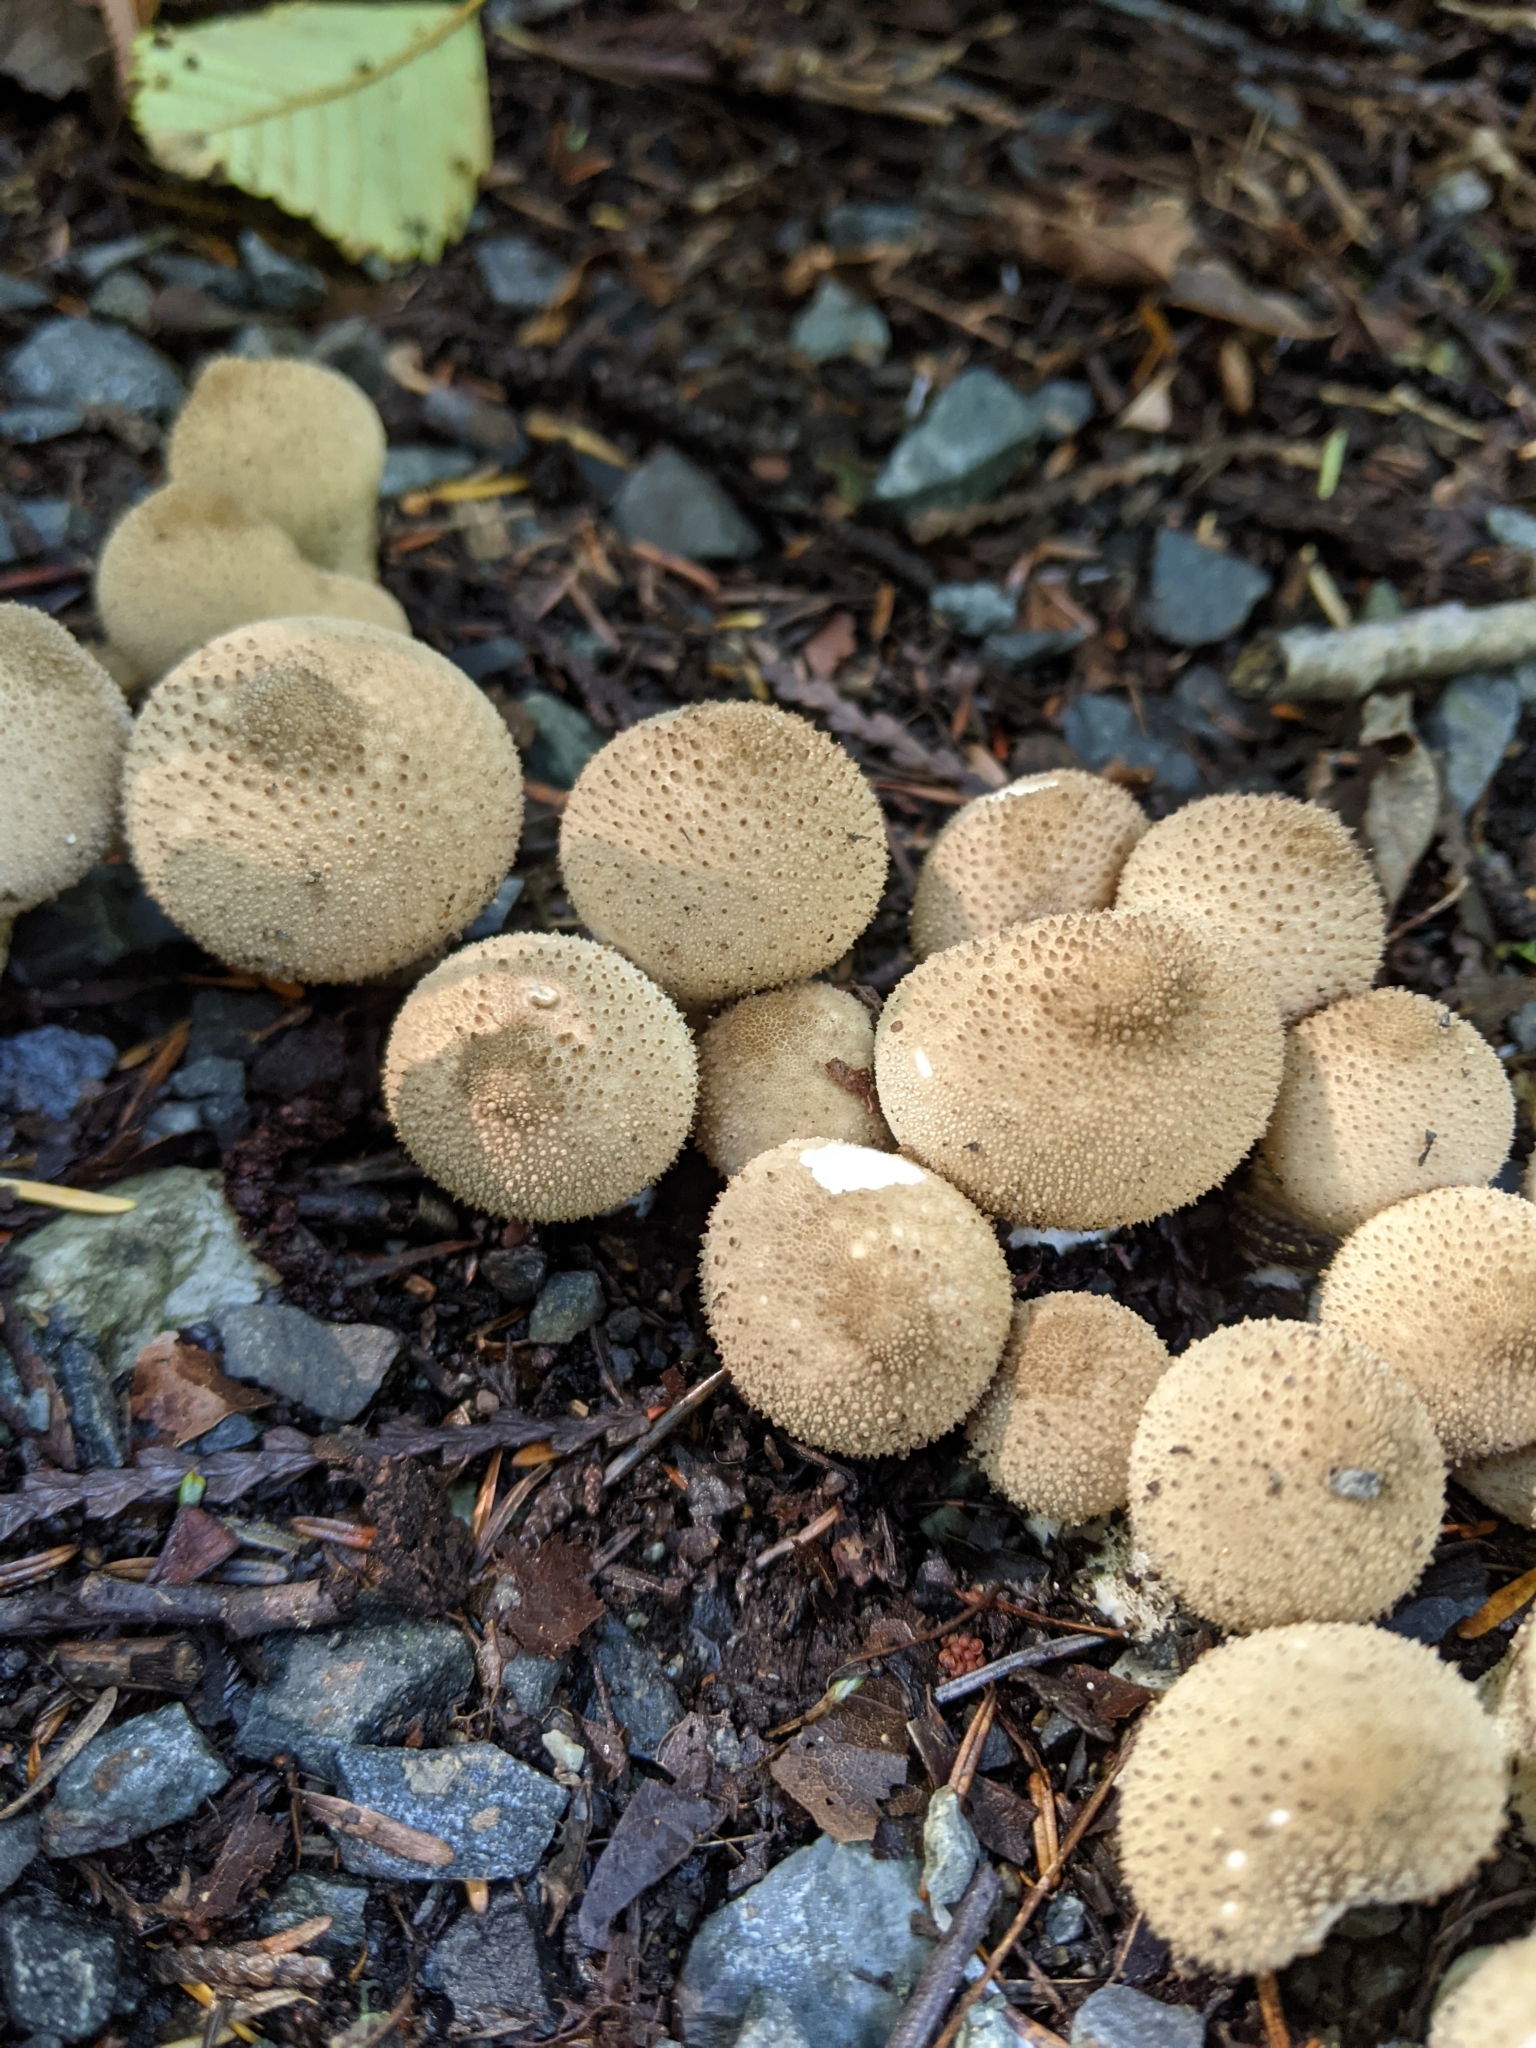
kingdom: Fungi
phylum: Basidiomycota
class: Agaricomycetes
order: Agaricales
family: Lycoperdaceae
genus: Lycoperdon
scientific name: Lycoperdon perlatum
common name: Common puffball
